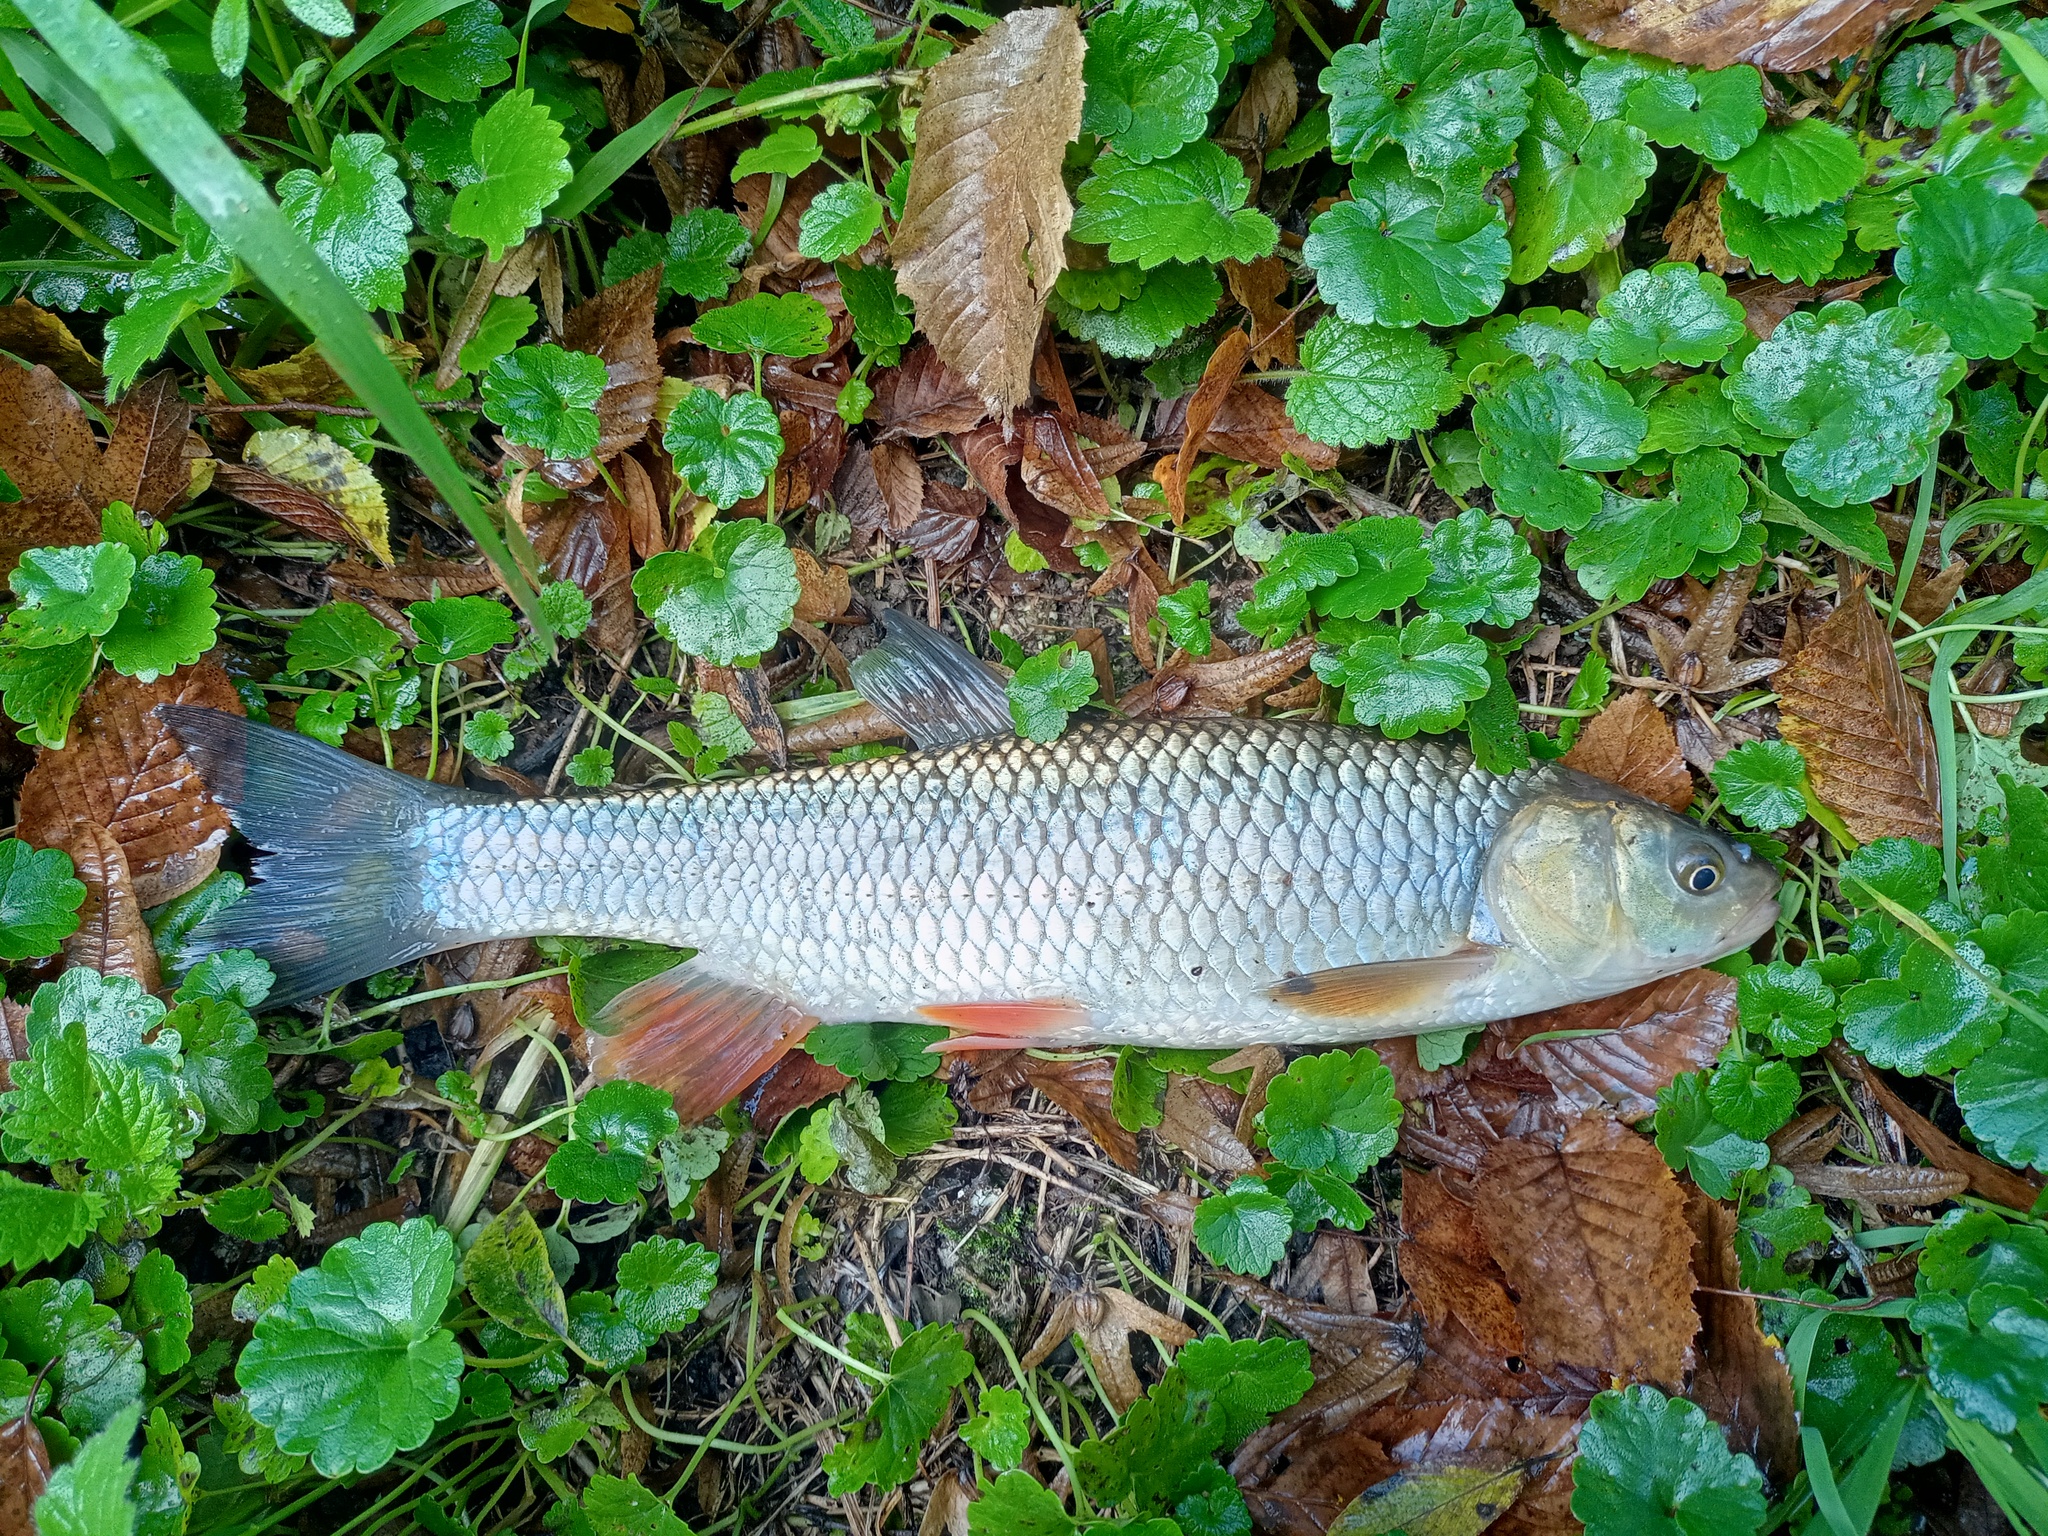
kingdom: Animalia
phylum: Chordata
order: Cypriniformes
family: Cyprinidae
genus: Squalius
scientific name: Squalius cephalus
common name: Chub
